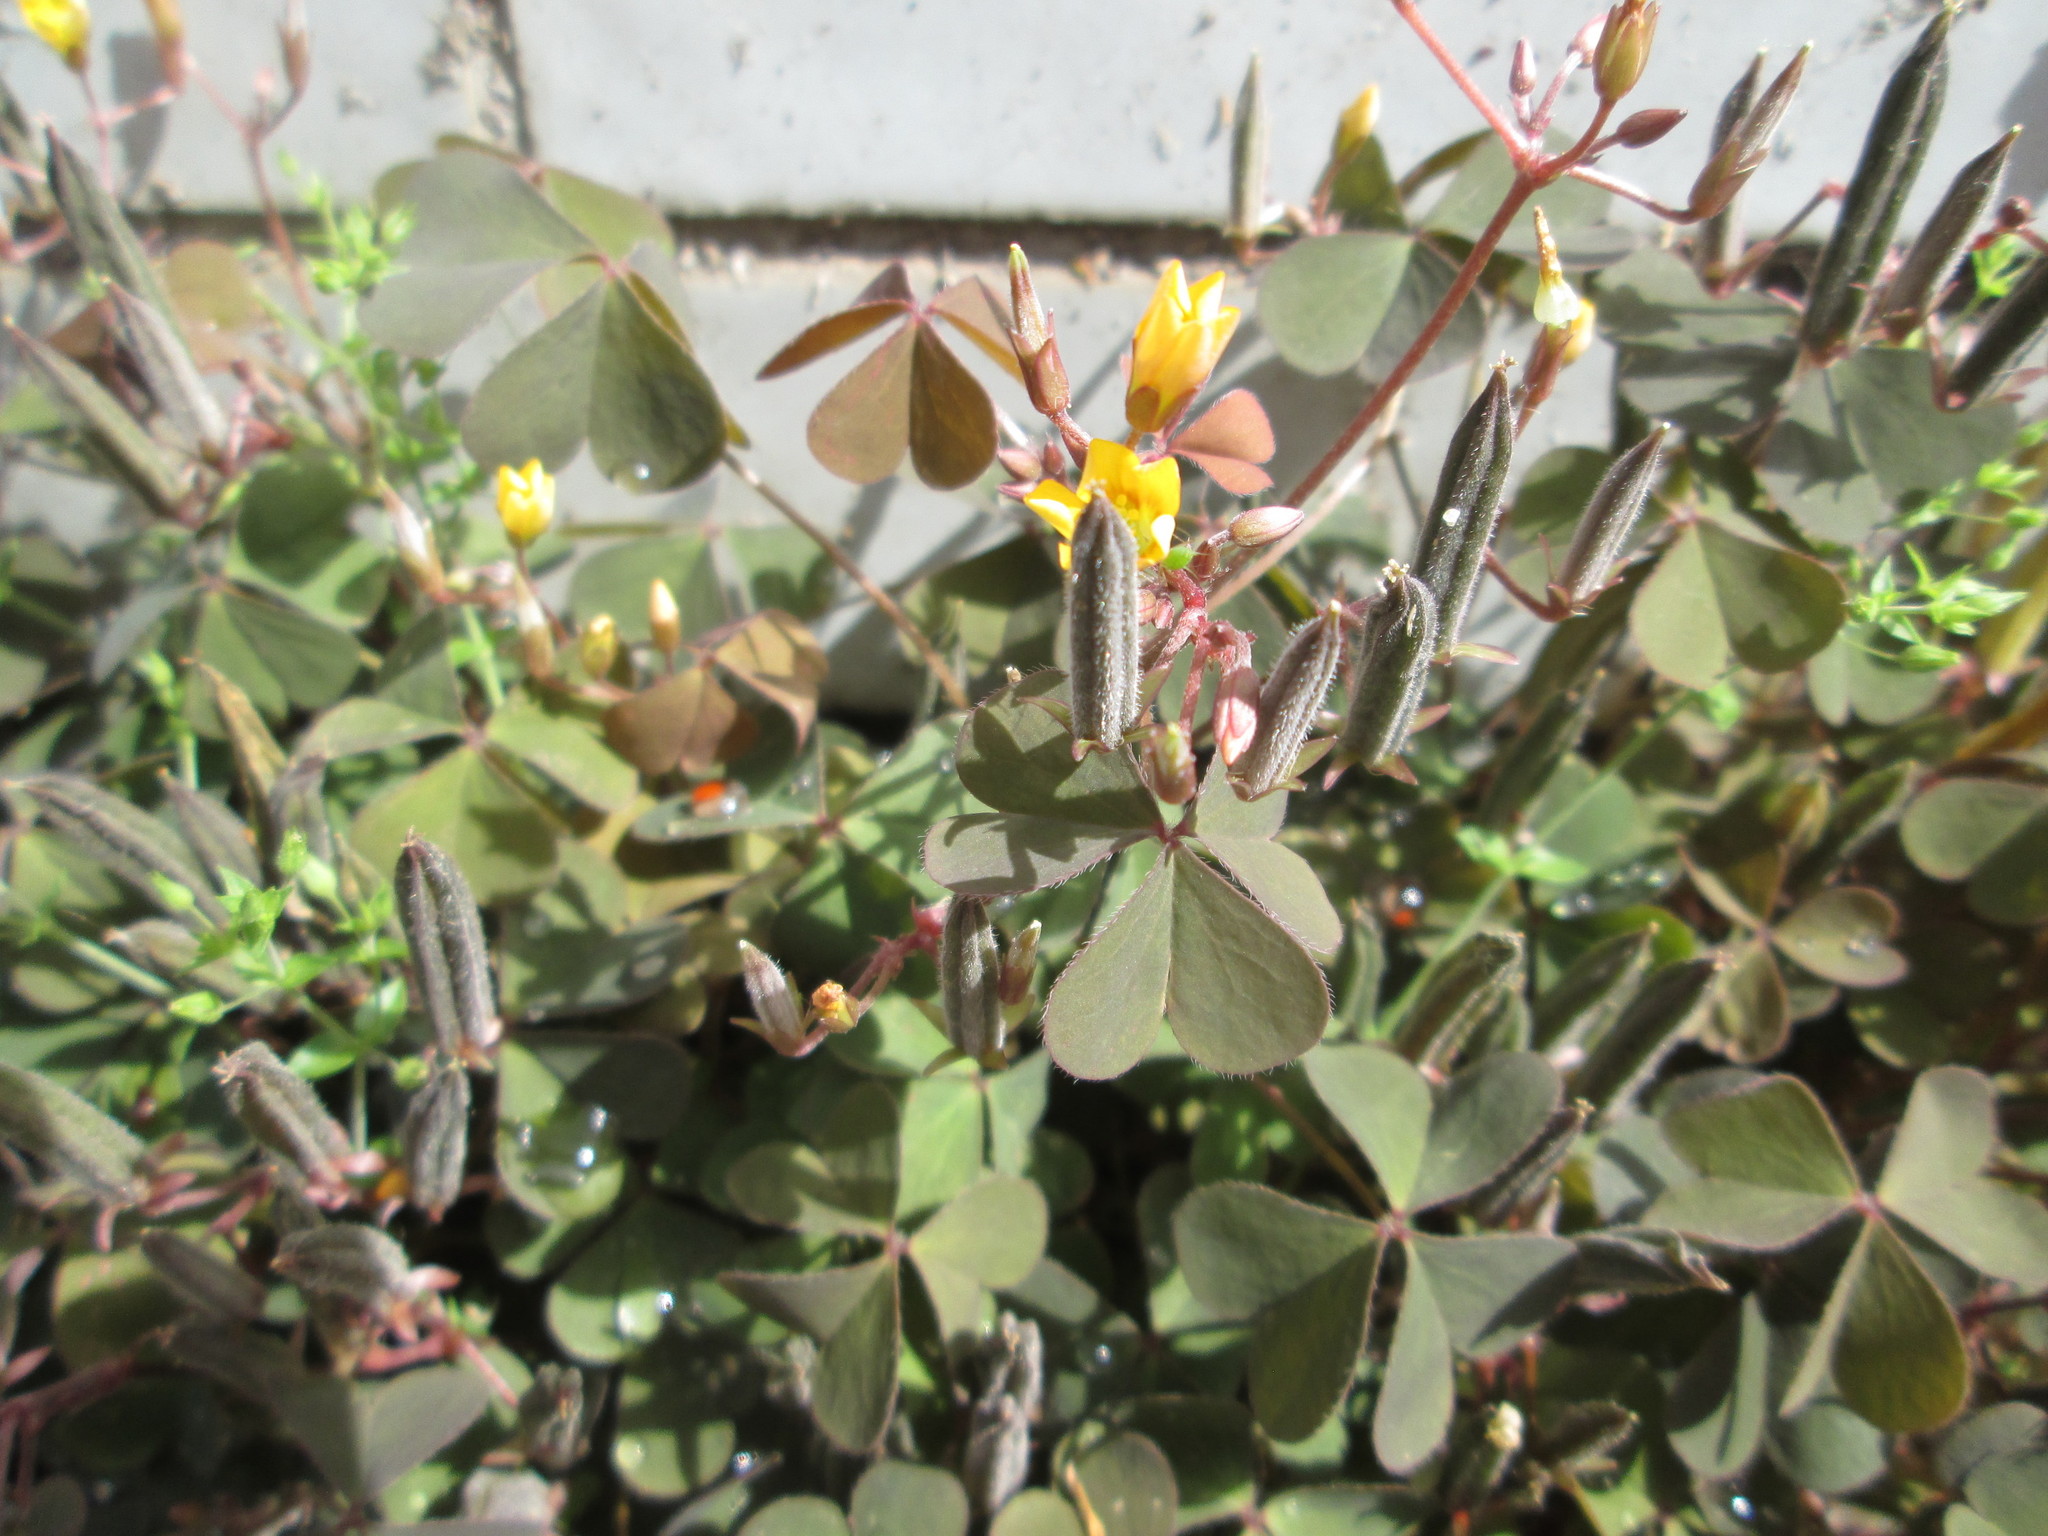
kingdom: Plantae
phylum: Tracheophyta
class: Magnoliopsida
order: Oxalidales
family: Oxalidaceae
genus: Oxalis
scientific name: Oxalis corniculata
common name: Procumbent yellow-sorrel
